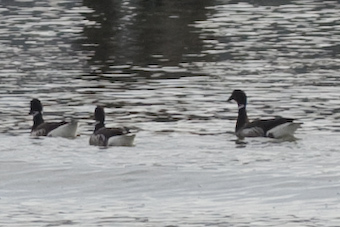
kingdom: Animalia
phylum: Chordata
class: Aves
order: Anseriformes
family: Anatidae
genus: Branta
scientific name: Branta bernicla
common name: Brant goose
